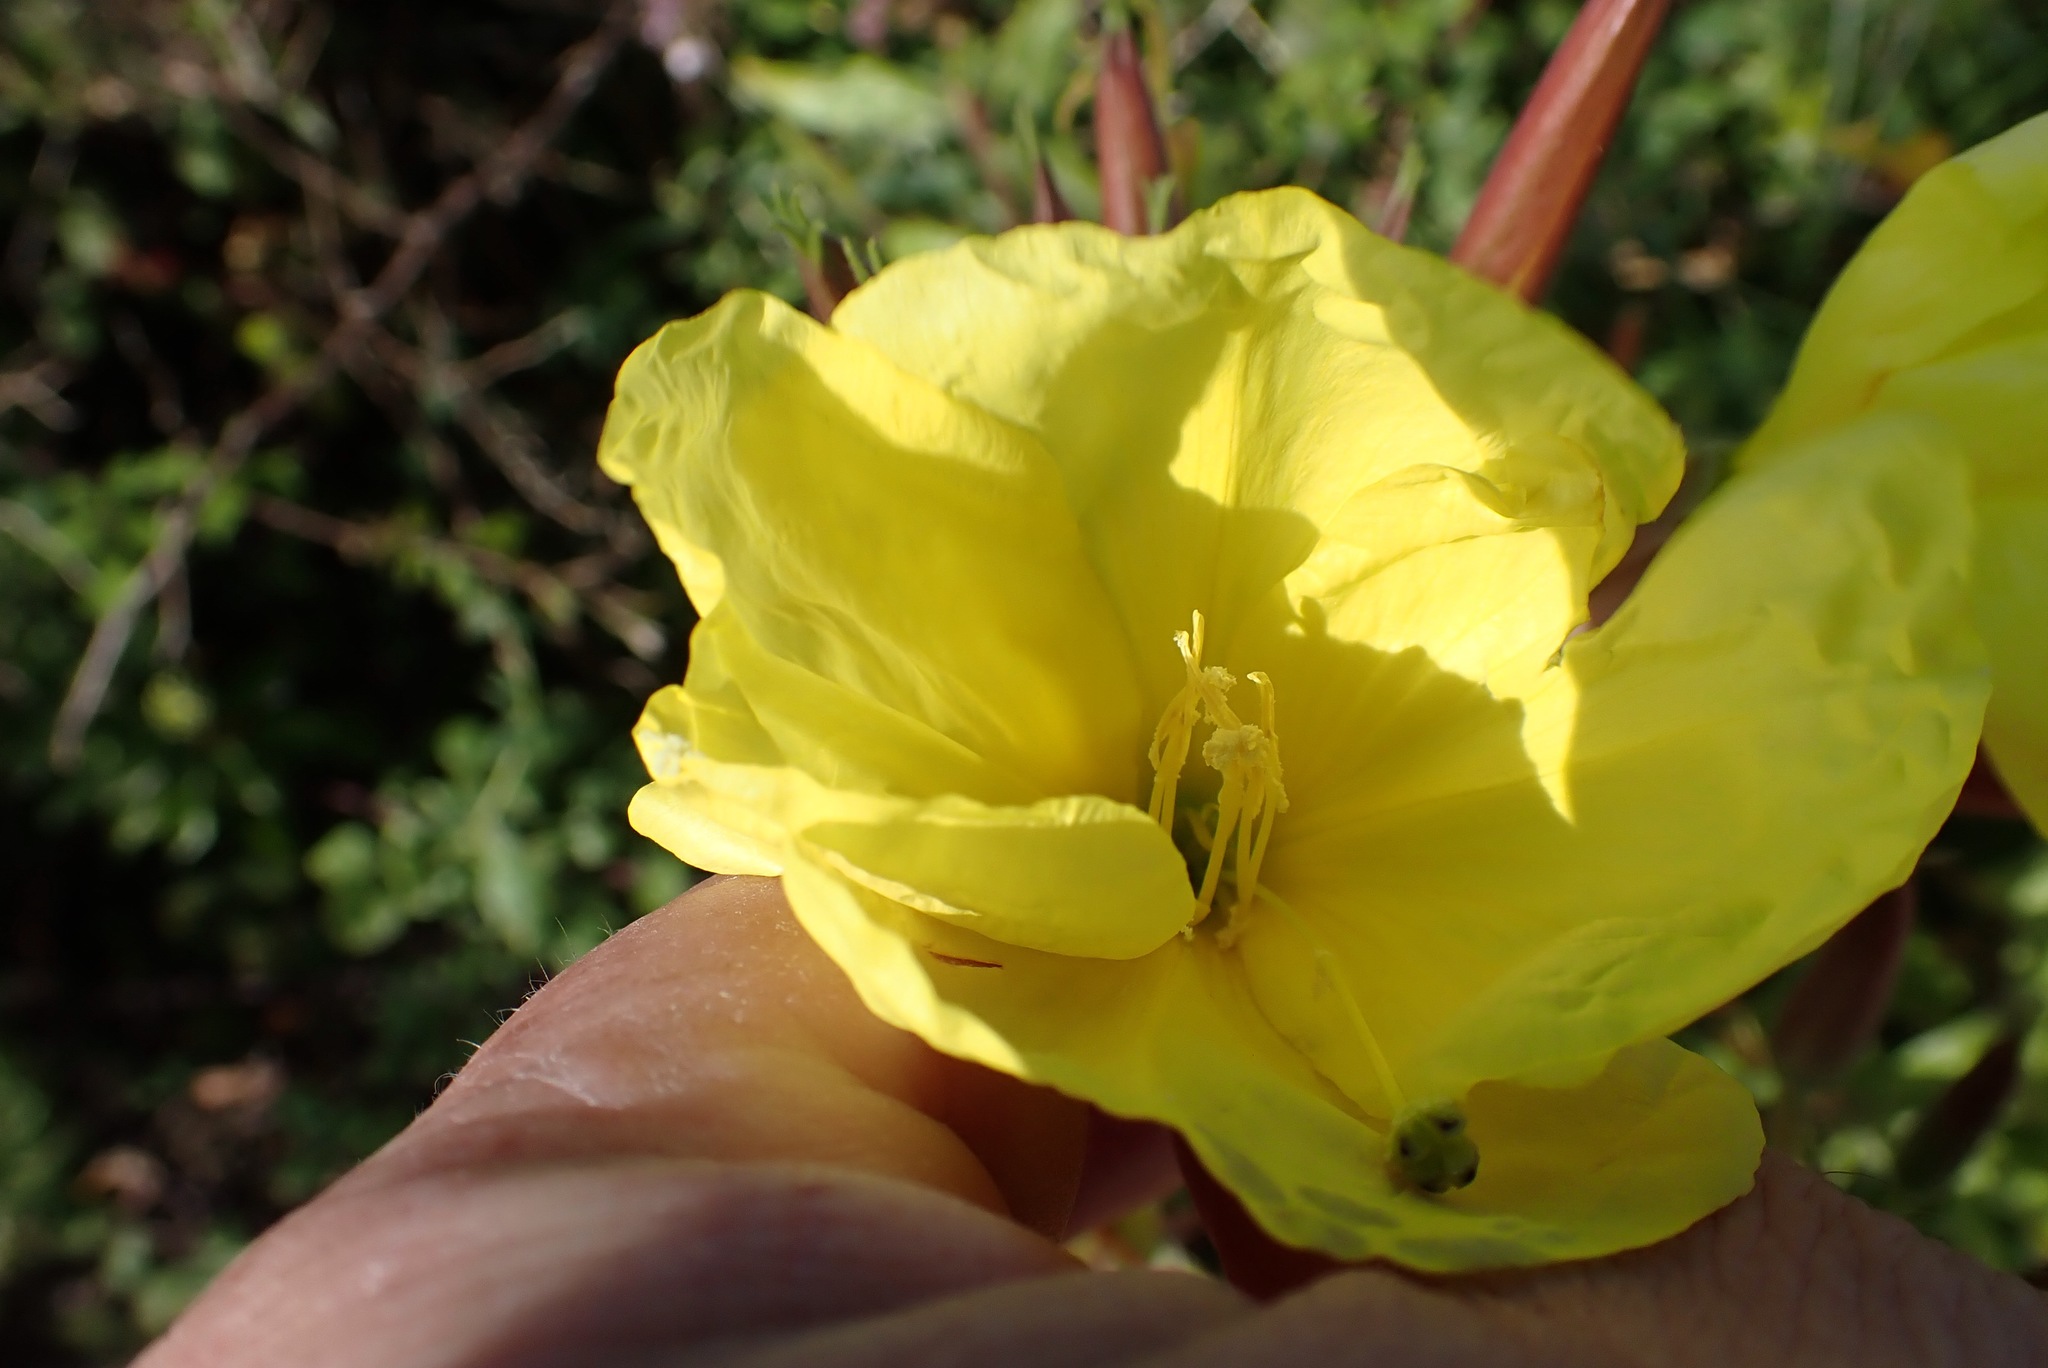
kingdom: Plantae
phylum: Tracheophyta
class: Magnoliopsida
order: Myrtales
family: Onagraceae
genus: Oenothera
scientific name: Oenothera glazioviana
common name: Large-flowered evening-primrose
